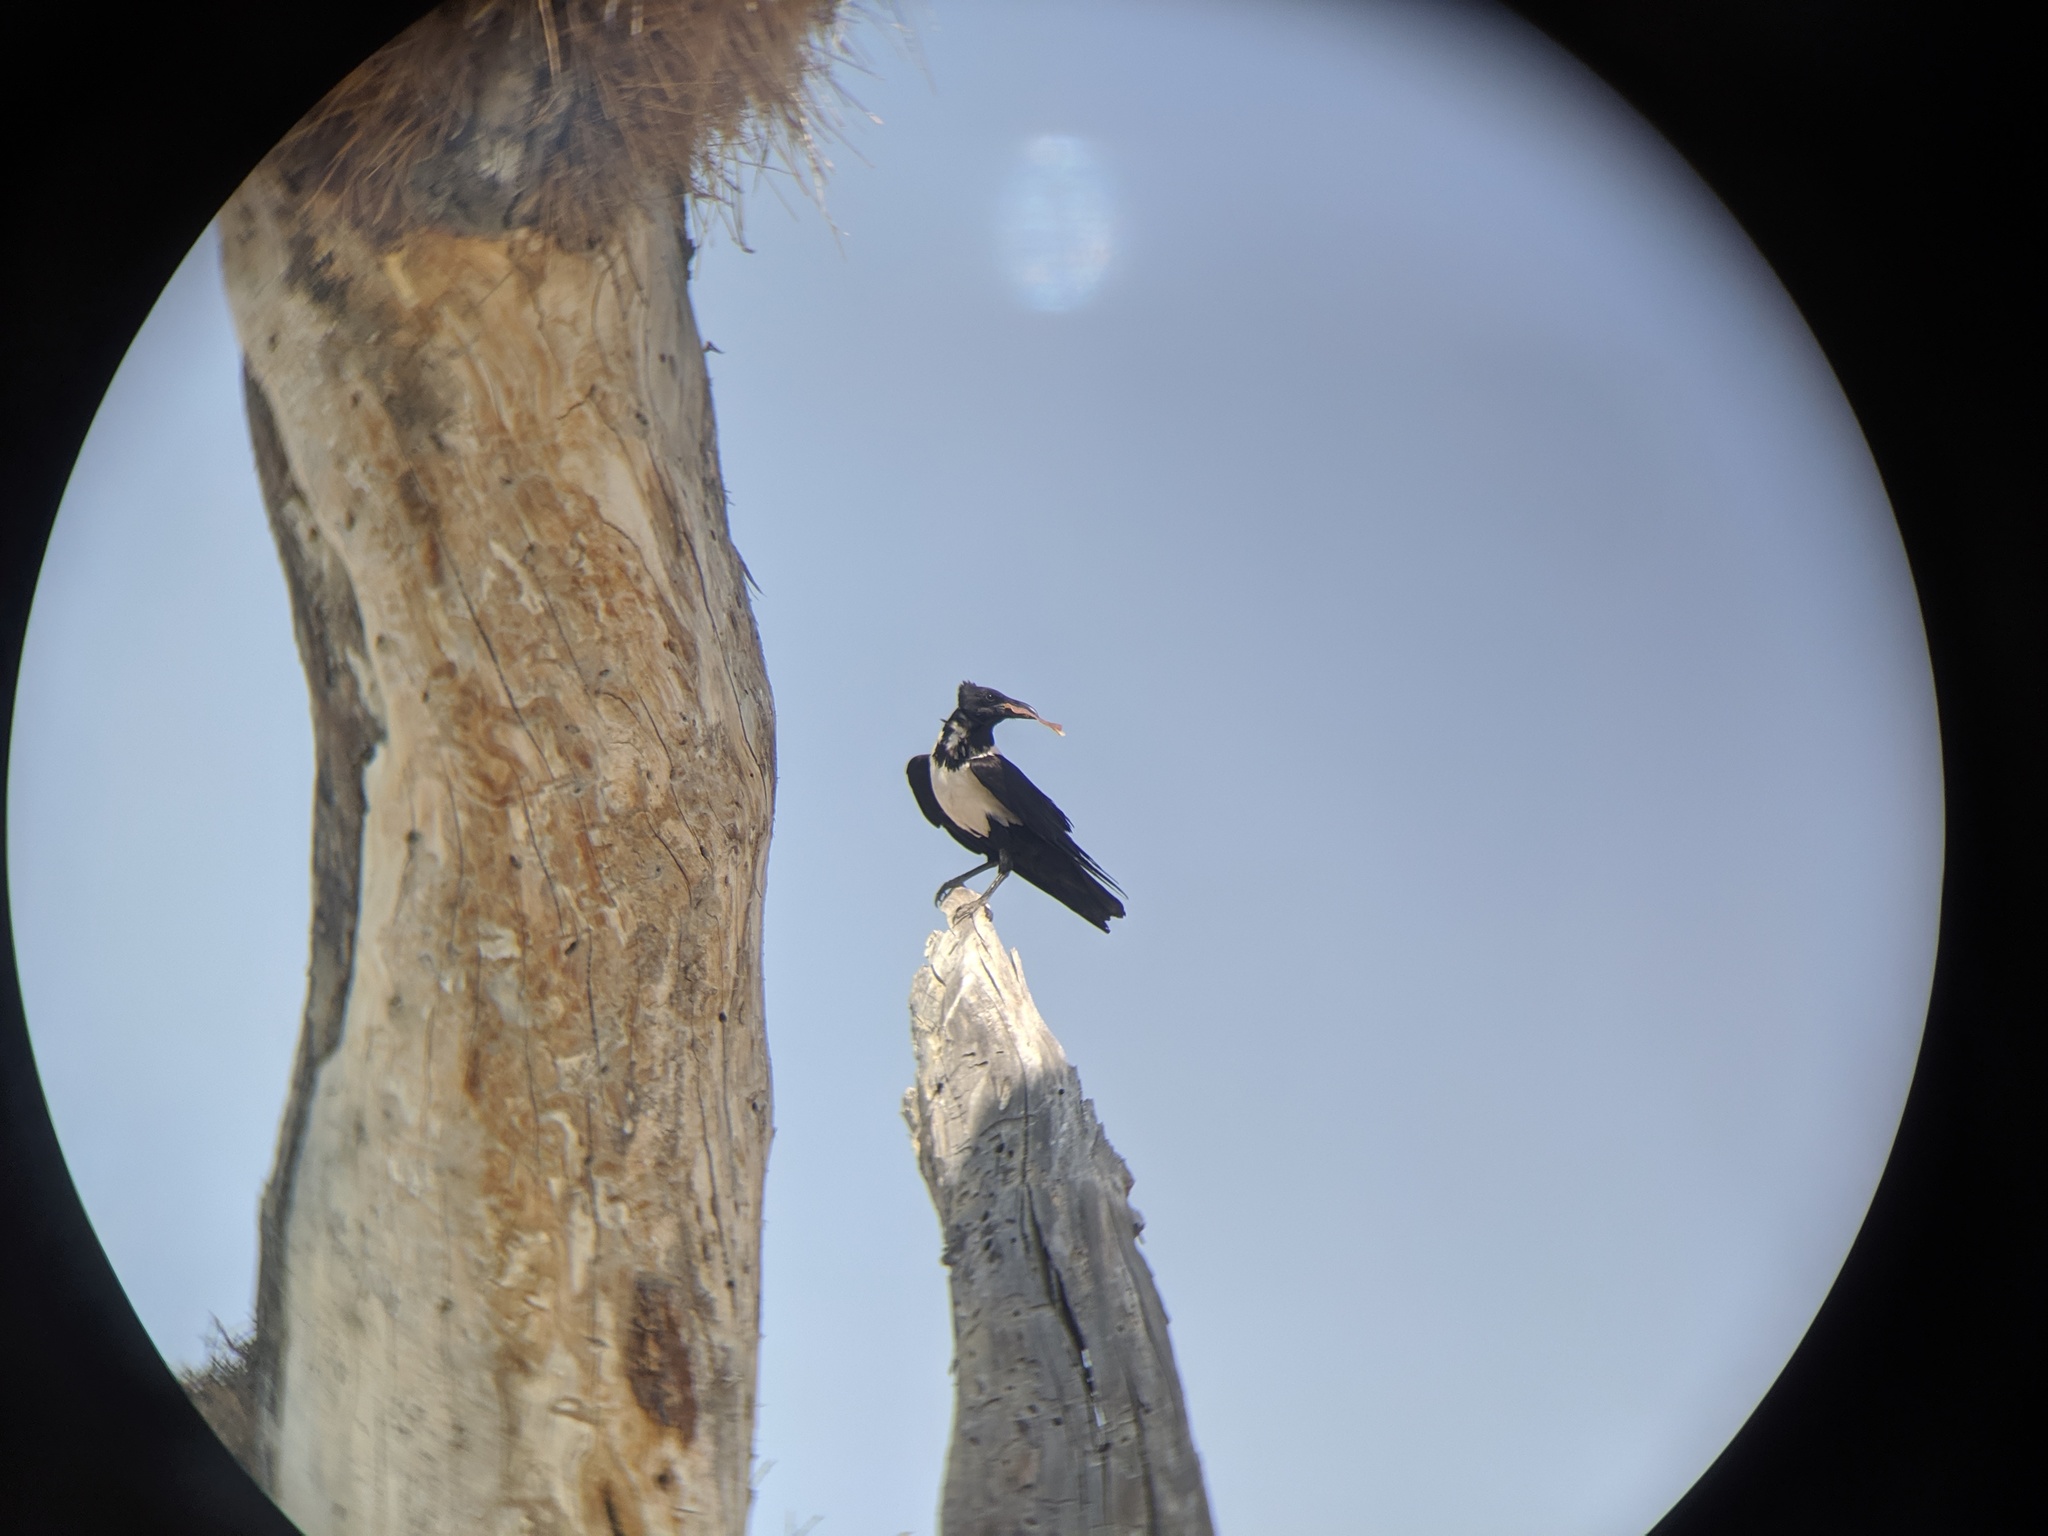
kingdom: Animalia
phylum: Chordata
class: Aves
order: Passeriformes
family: Corvidae
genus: Corvus
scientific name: Corvus albus
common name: Pied crow
